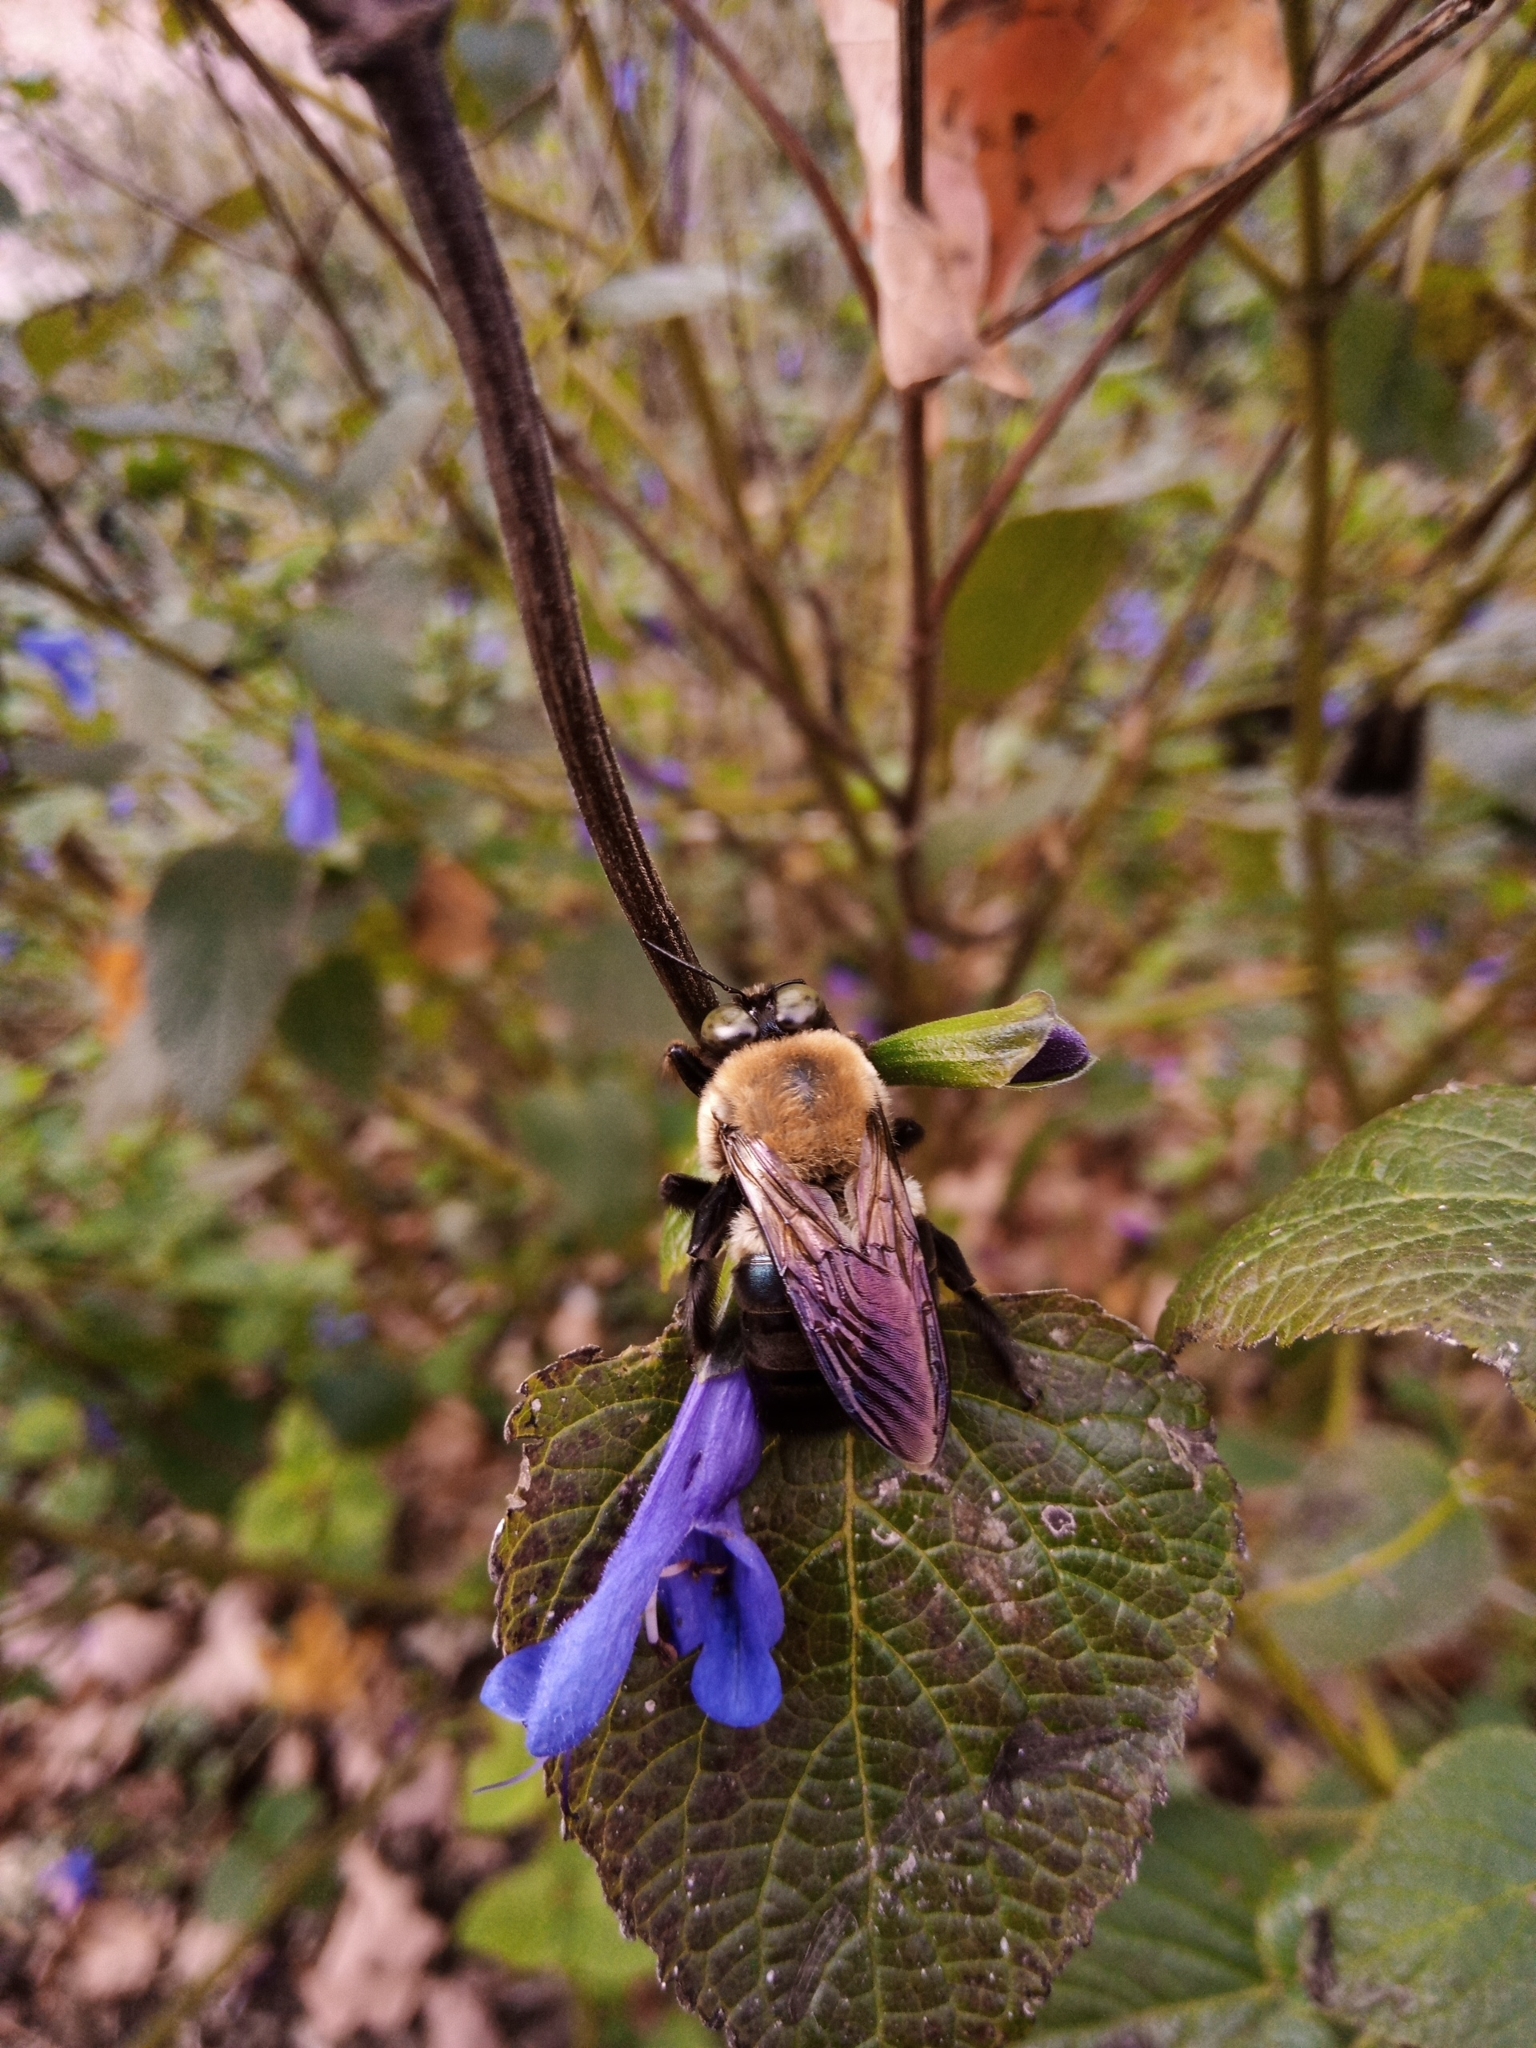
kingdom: Animalia
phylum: Arthropoda
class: Insecta
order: Hymenoptera
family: Apidae
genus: Xylocopa
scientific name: Xylocopa virginica
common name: Carpenter bee
